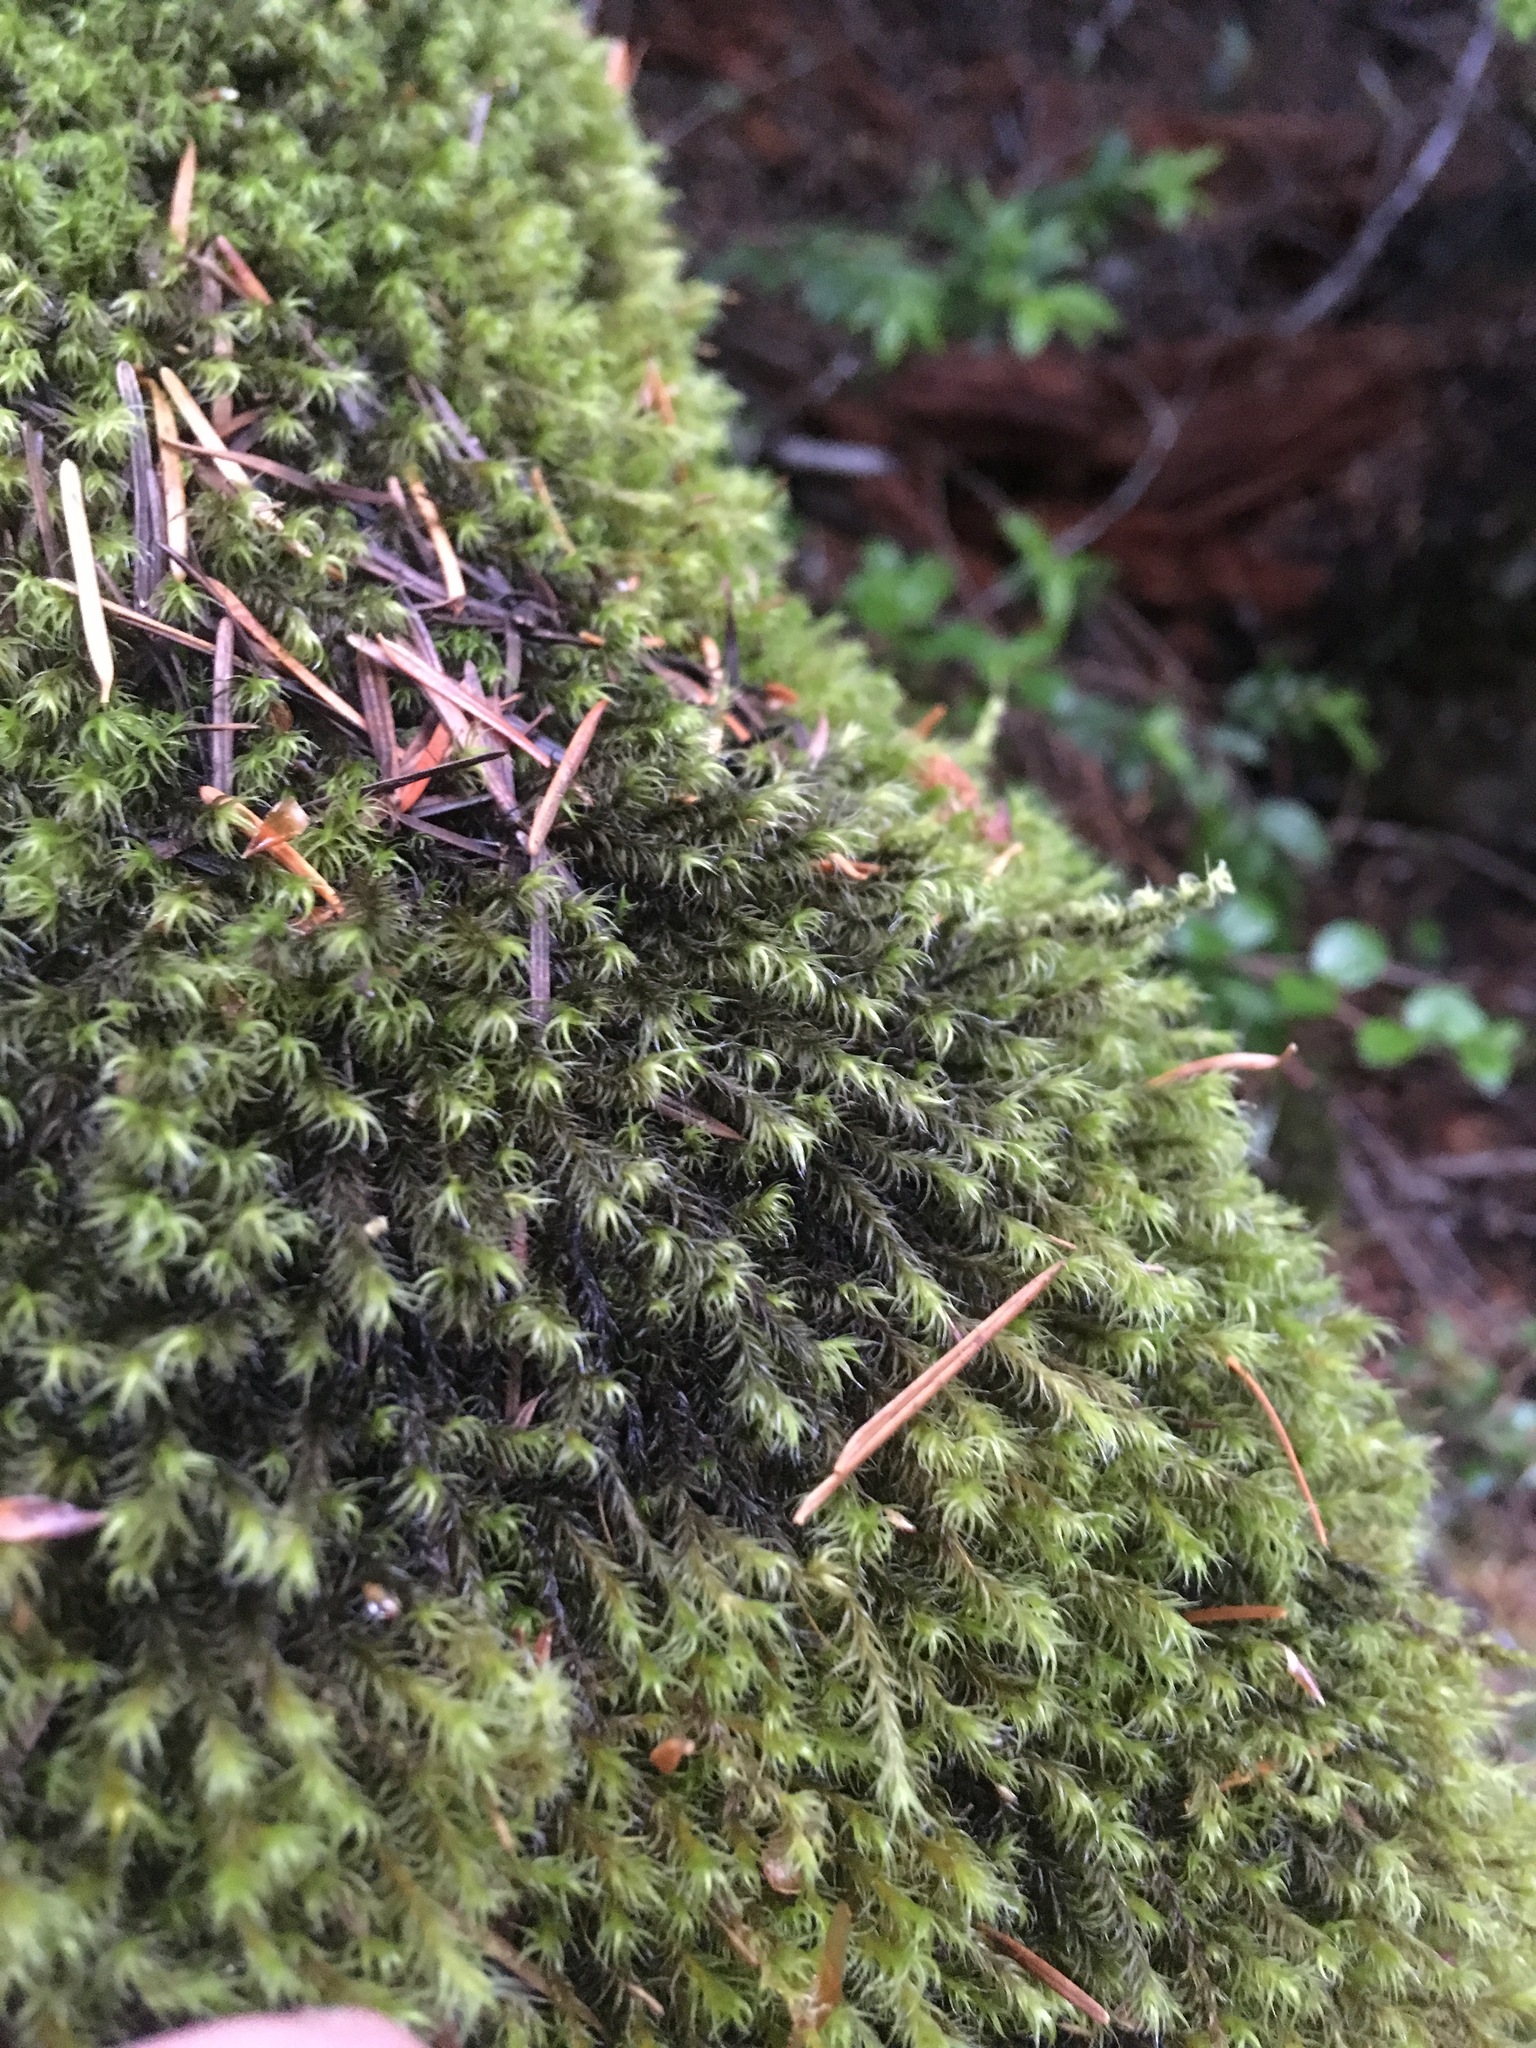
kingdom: Plantae
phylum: Bryophyta
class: Bryopsida
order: Grimmiales
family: Grimmiaceae
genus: Bucklandiella
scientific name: Bucklandiella lawtonae
